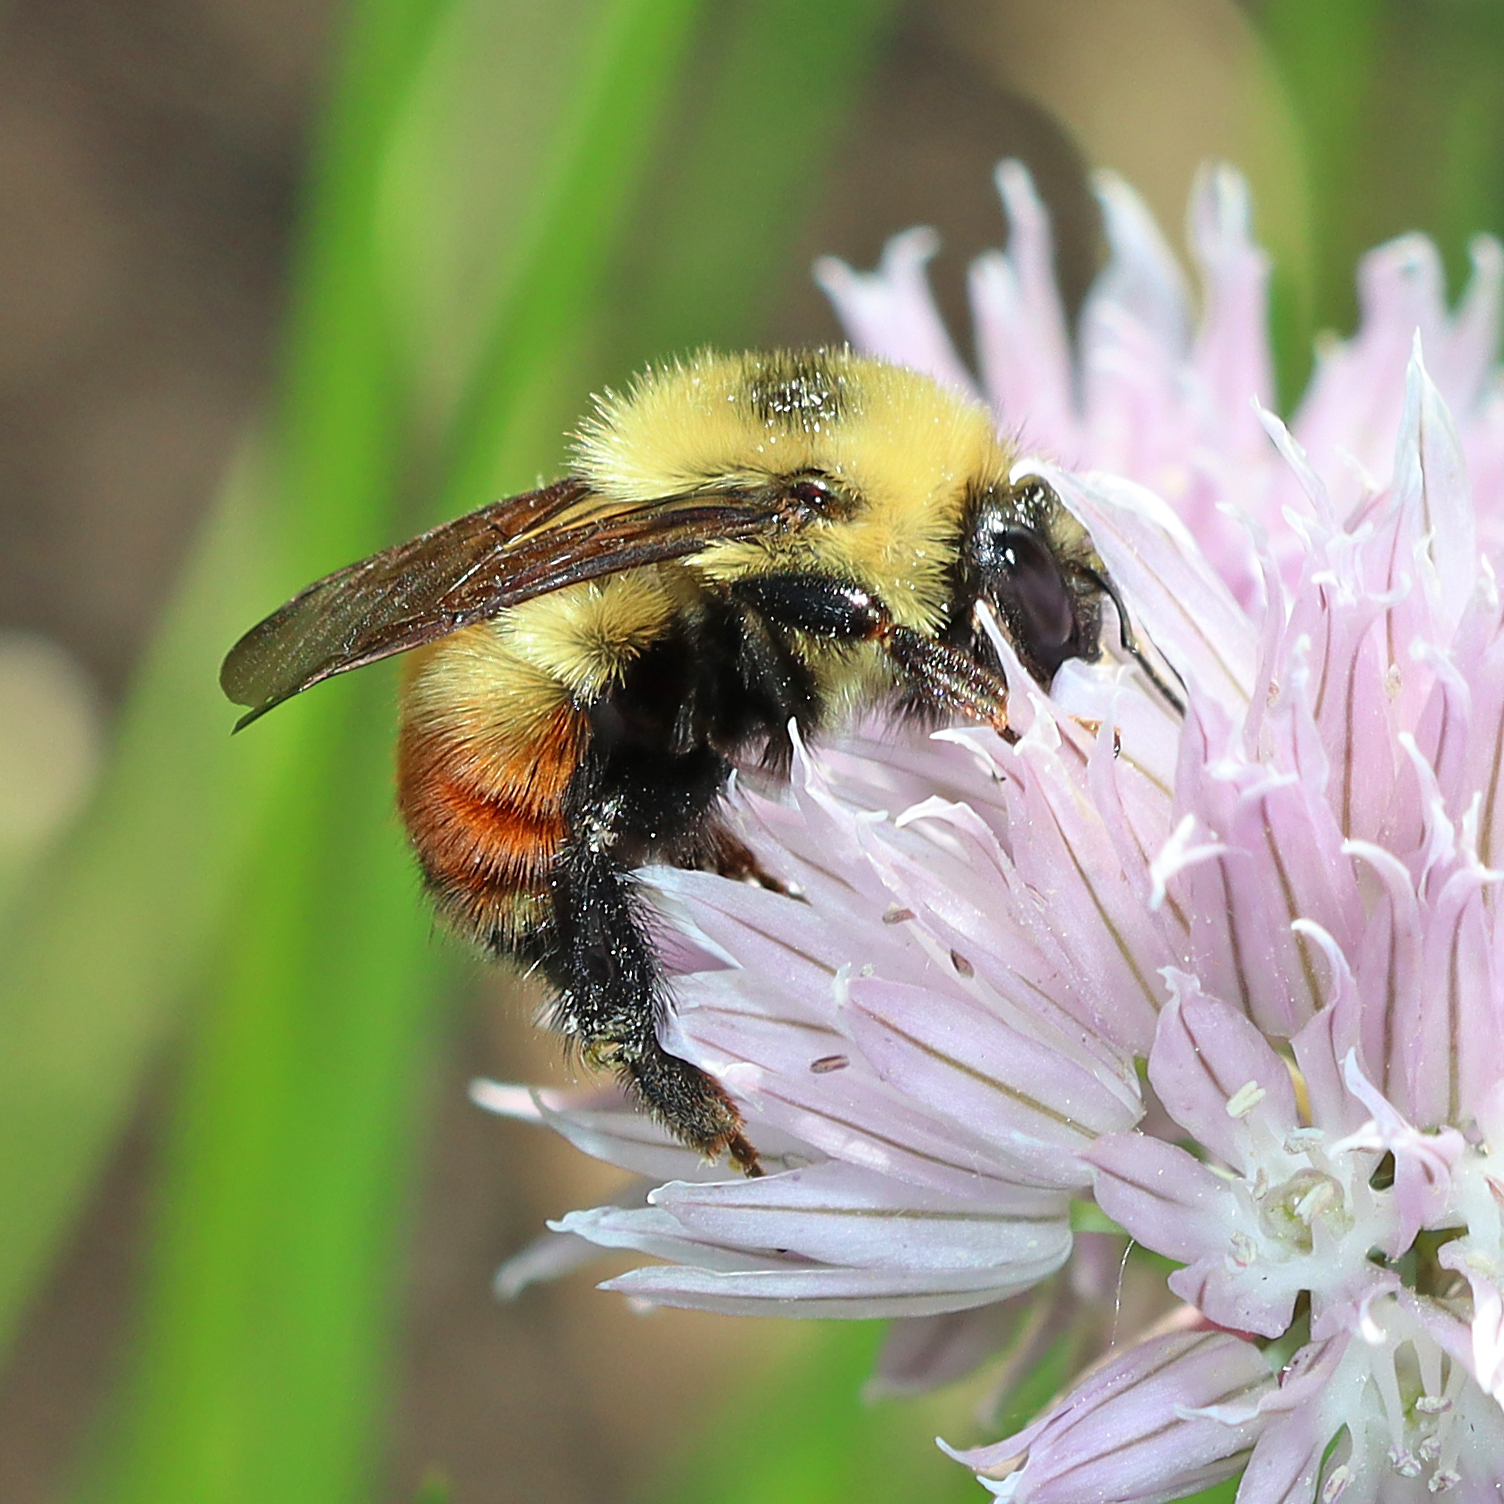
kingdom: Animalia
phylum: Arthropoda
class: Insecta
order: Hymenoptera
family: Apidae
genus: Bombus
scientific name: Bombus rufocinctus
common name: Red-belted bumble bee
